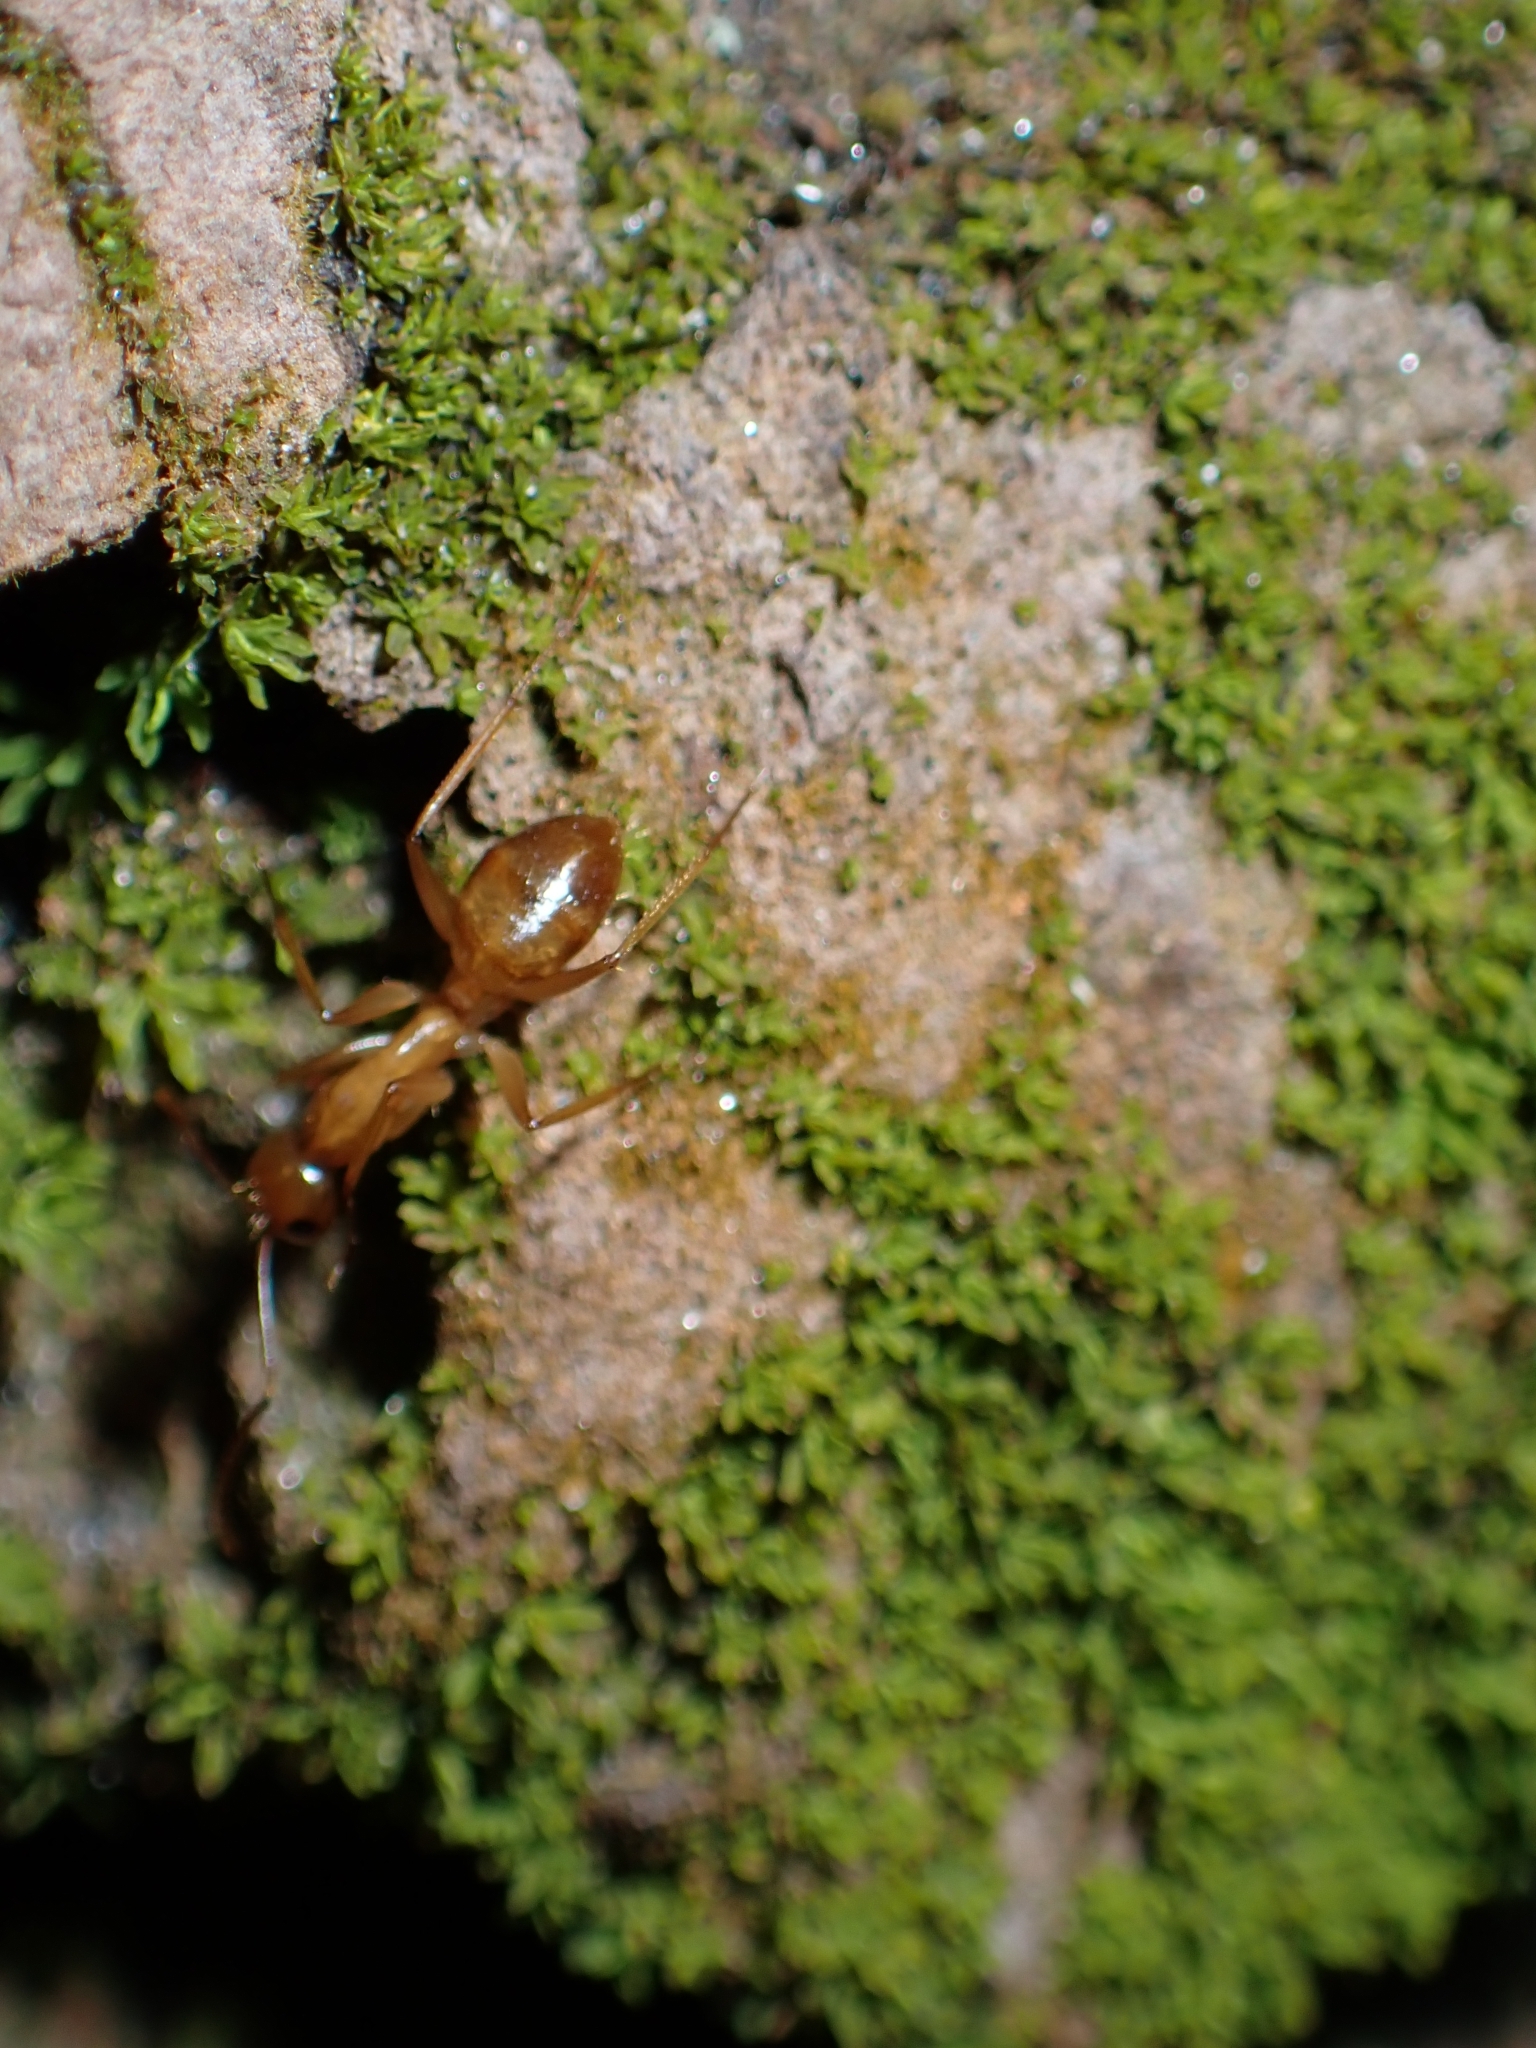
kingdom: Animalia
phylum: Arthropoda
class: Insecta
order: Hymenoptera
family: Formicidae
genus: Camponotus
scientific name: Camponotus chloroticus
